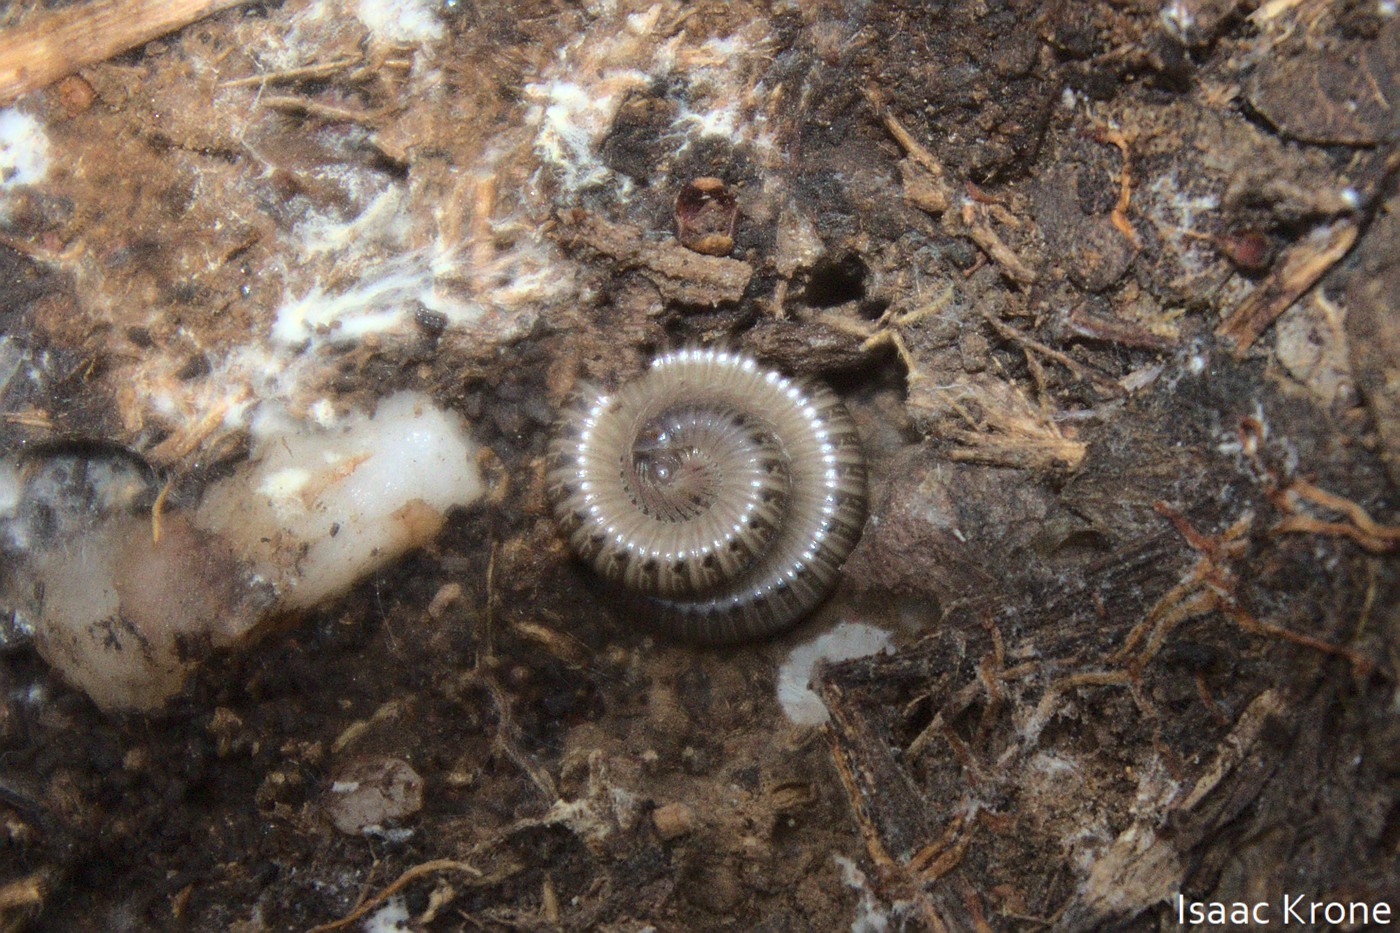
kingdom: Animalia
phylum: Arthropoda
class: Diplopoda
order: Julida
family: Parajulidae
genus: Bollmaniulus
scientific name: Bollmaniulus catalinae
